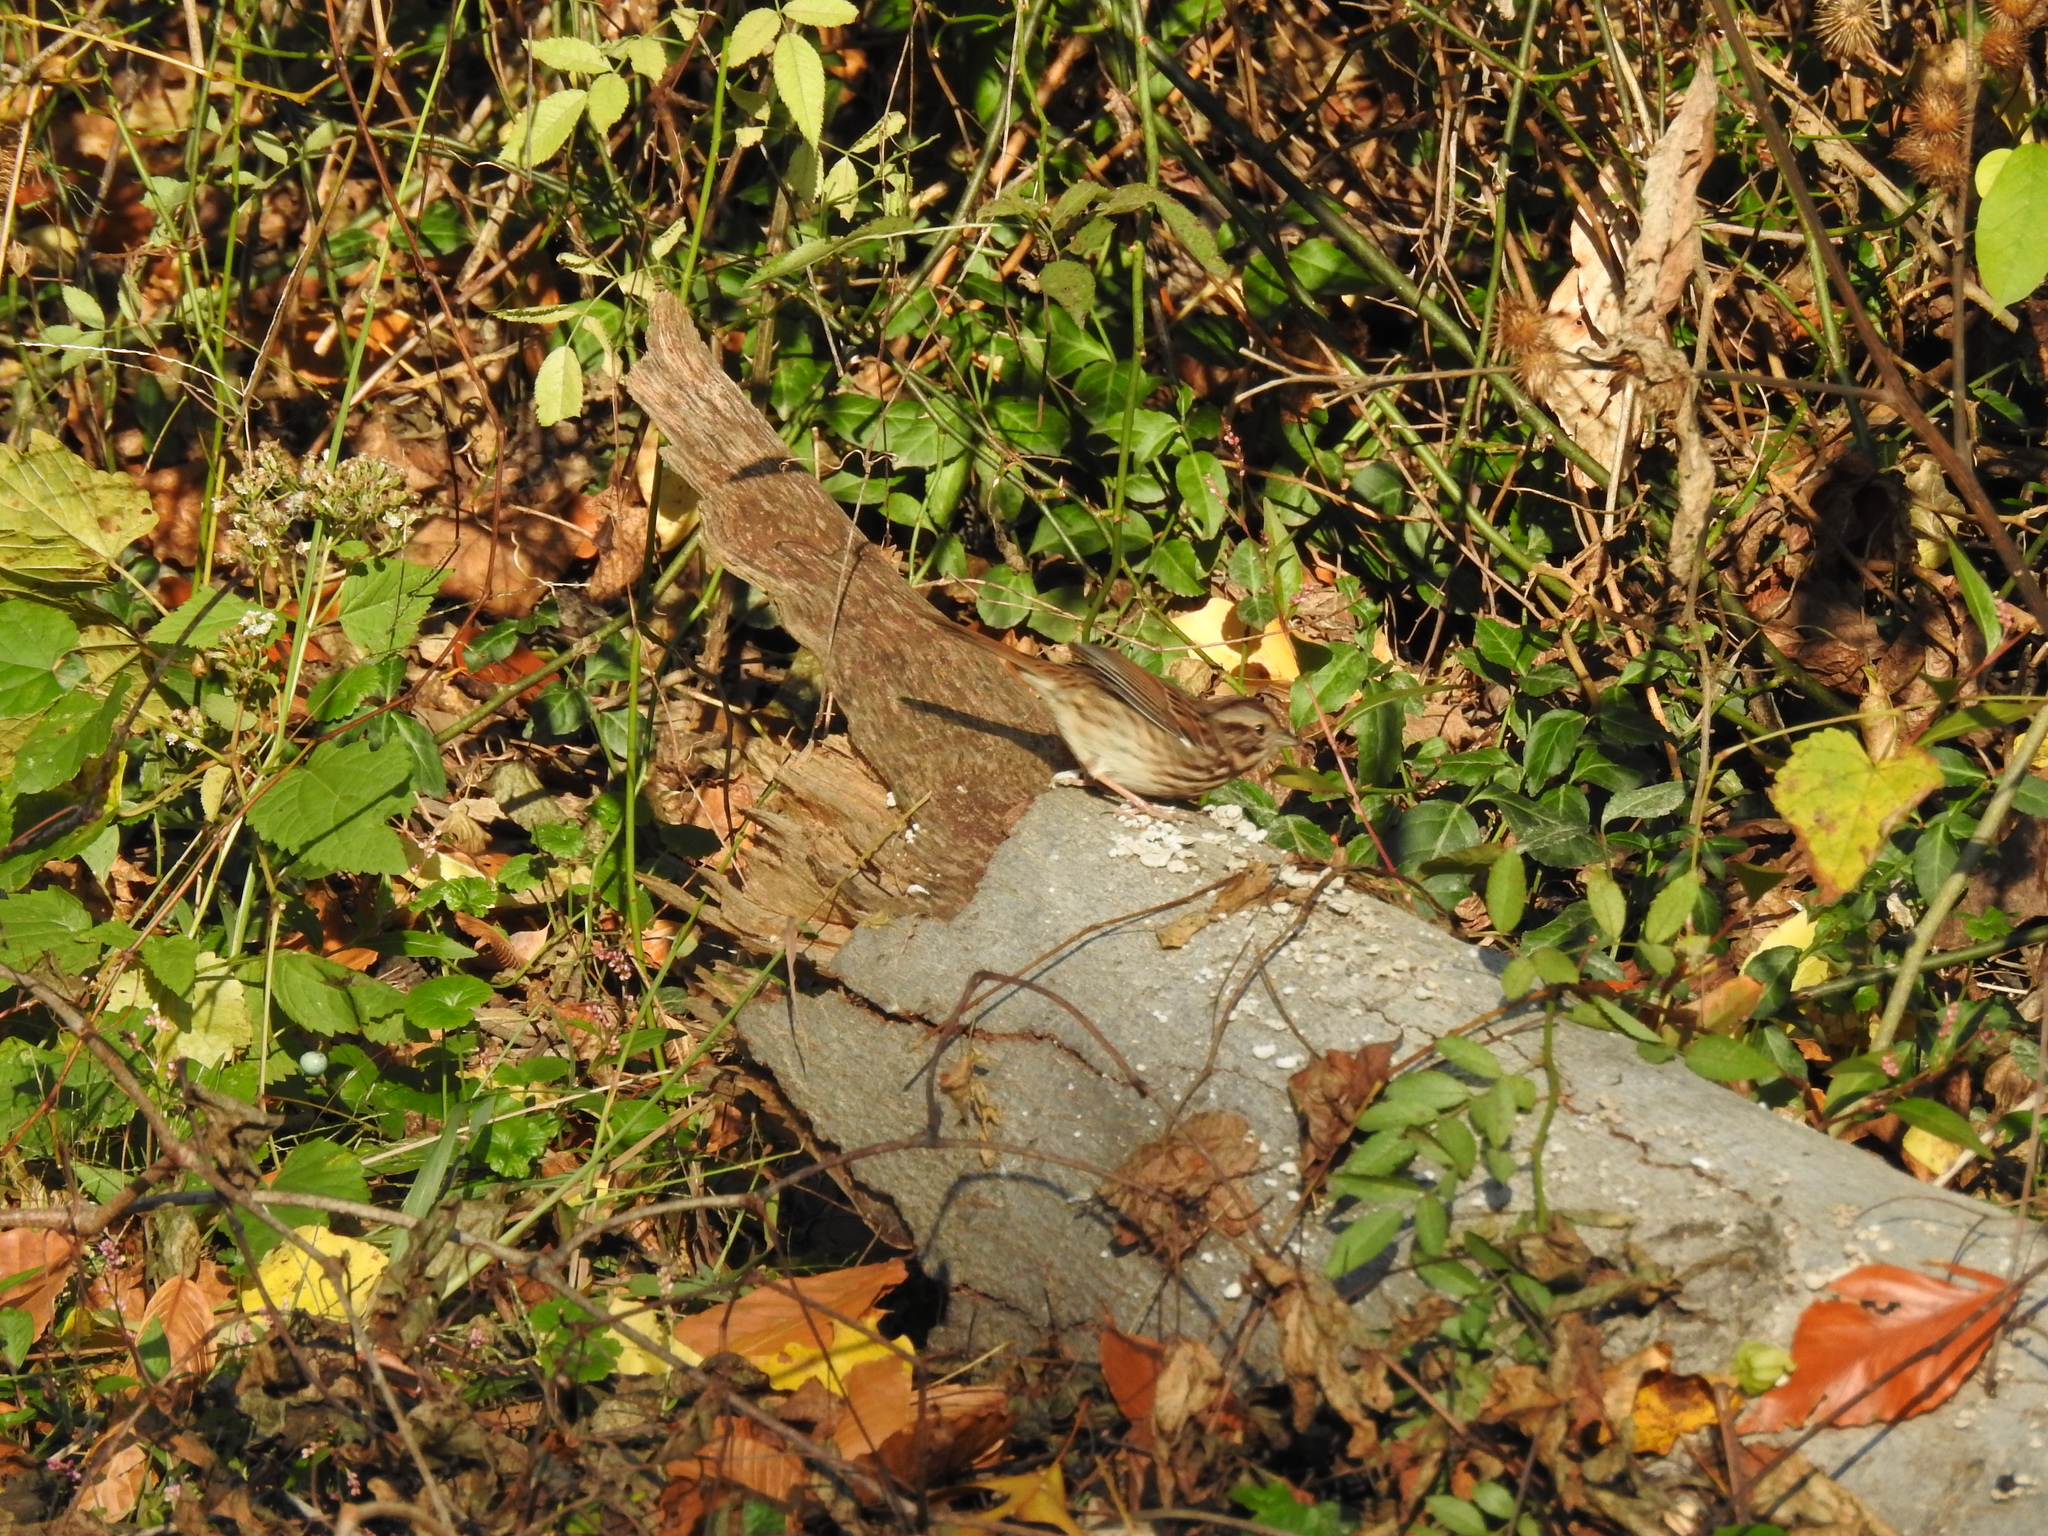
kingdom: Animalia
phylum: Chordata
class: Aves
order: Passeriformes
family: Passerellidae
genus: Melospiza
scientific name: Melospiza melodia
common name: Song sparrow
